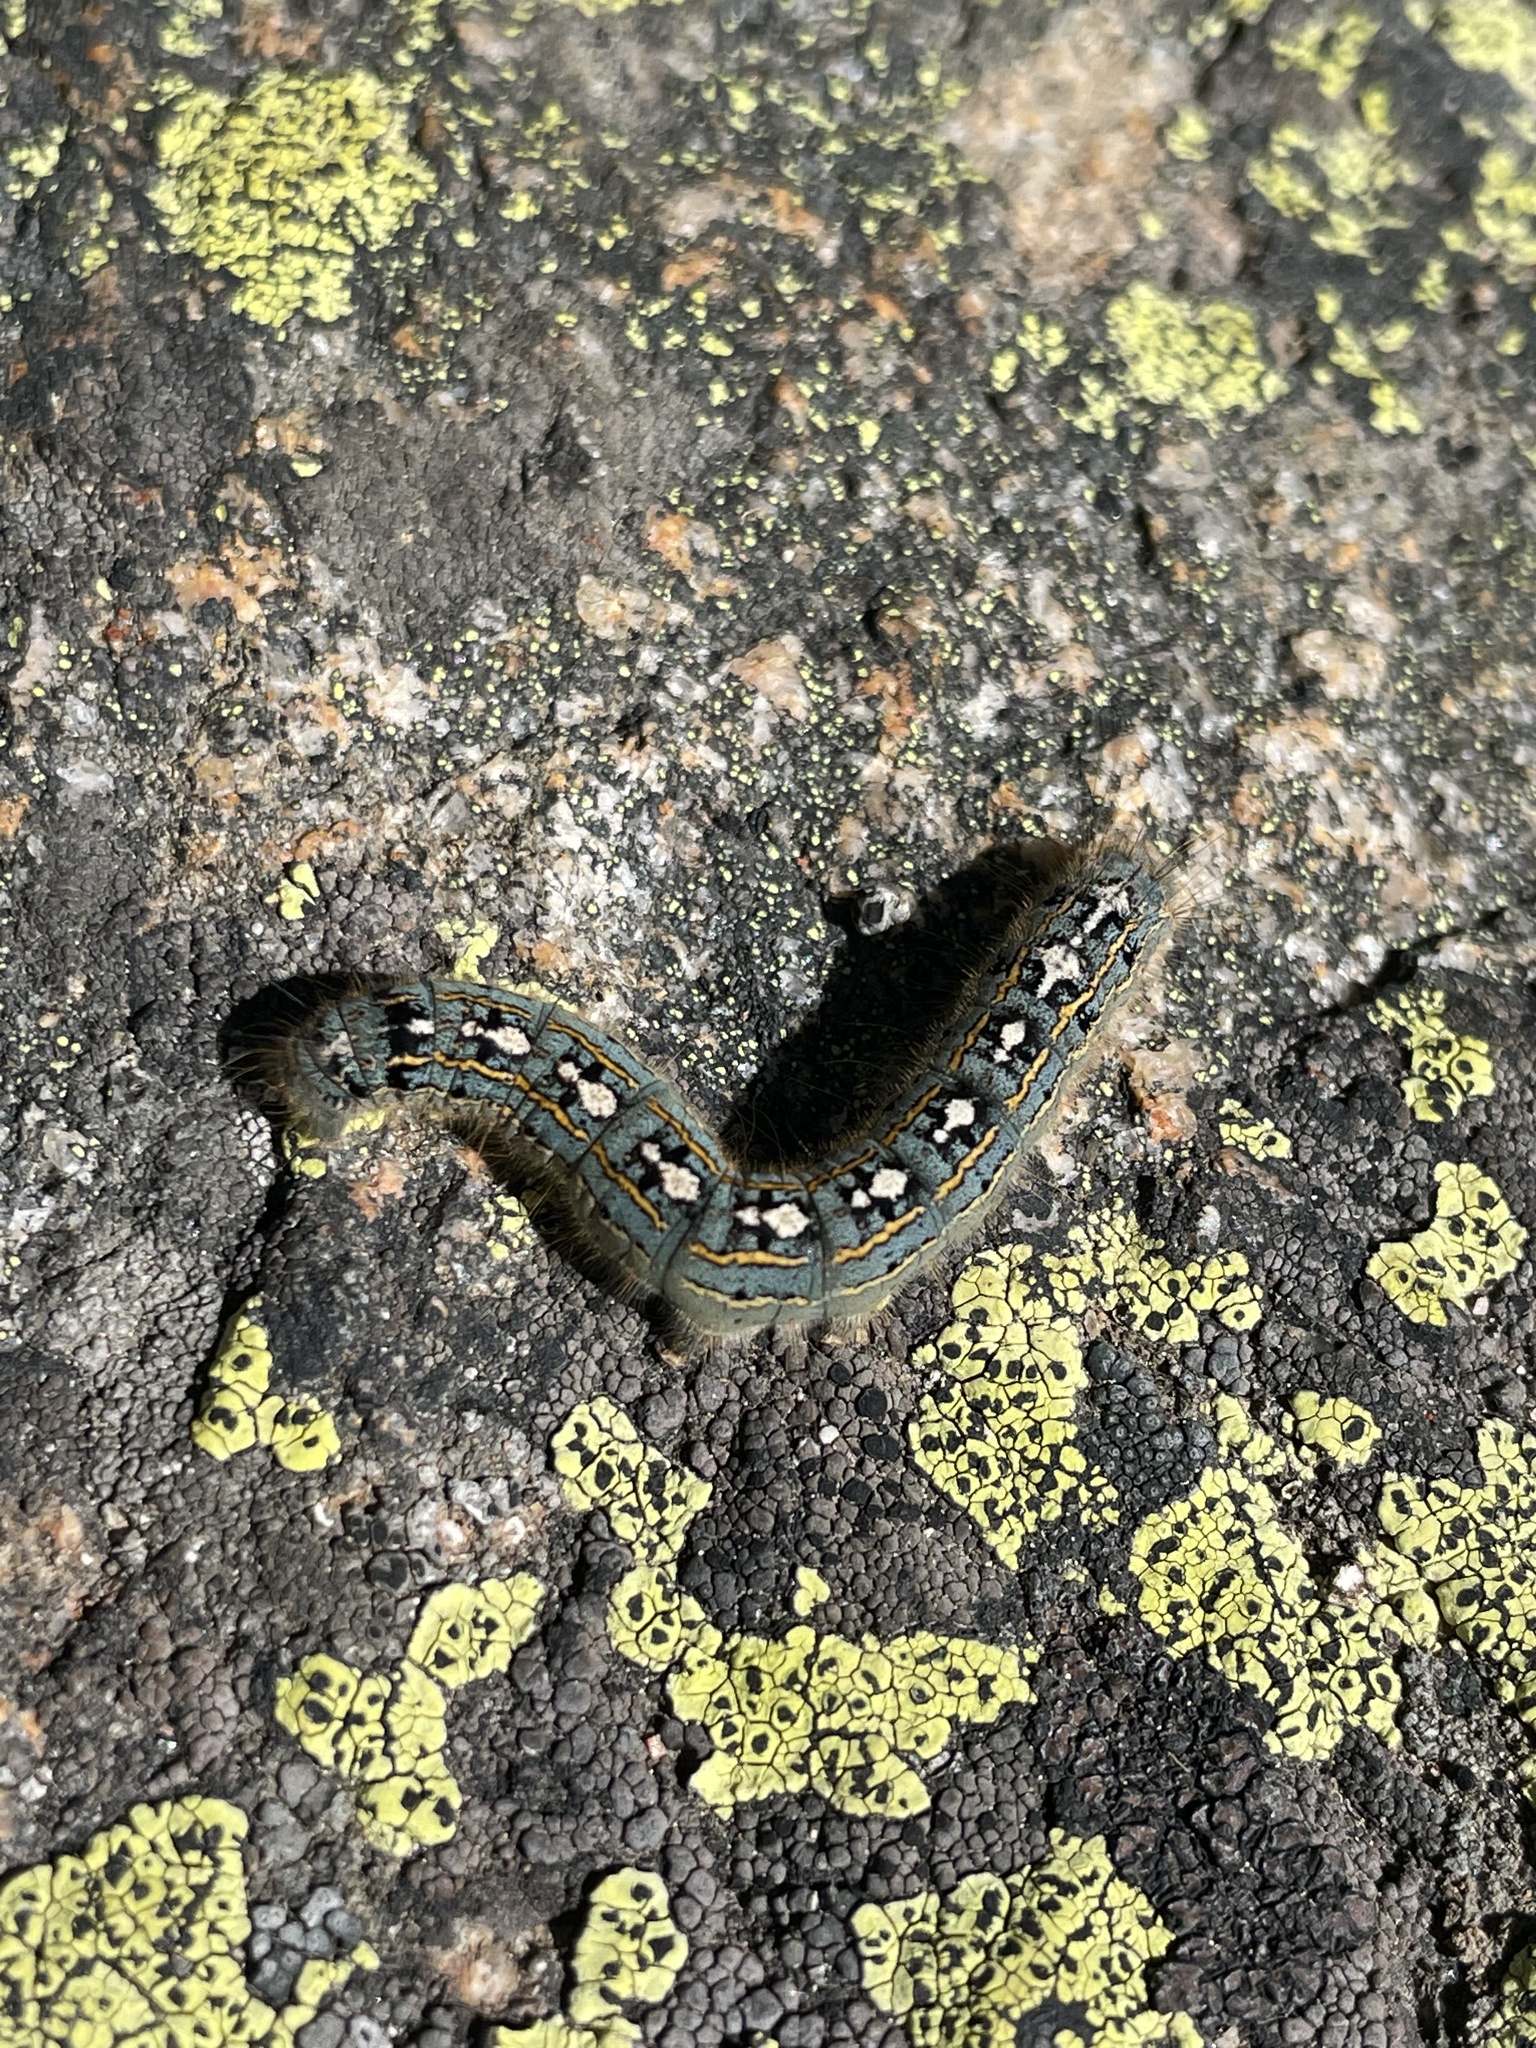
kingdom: Animalia
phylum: Arthropoda
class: Insecta
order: Lepidoptera
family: Lasiocampidae
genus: Malacosoma
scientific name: Malacosoma disstria
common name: Forest tent caterpillar
